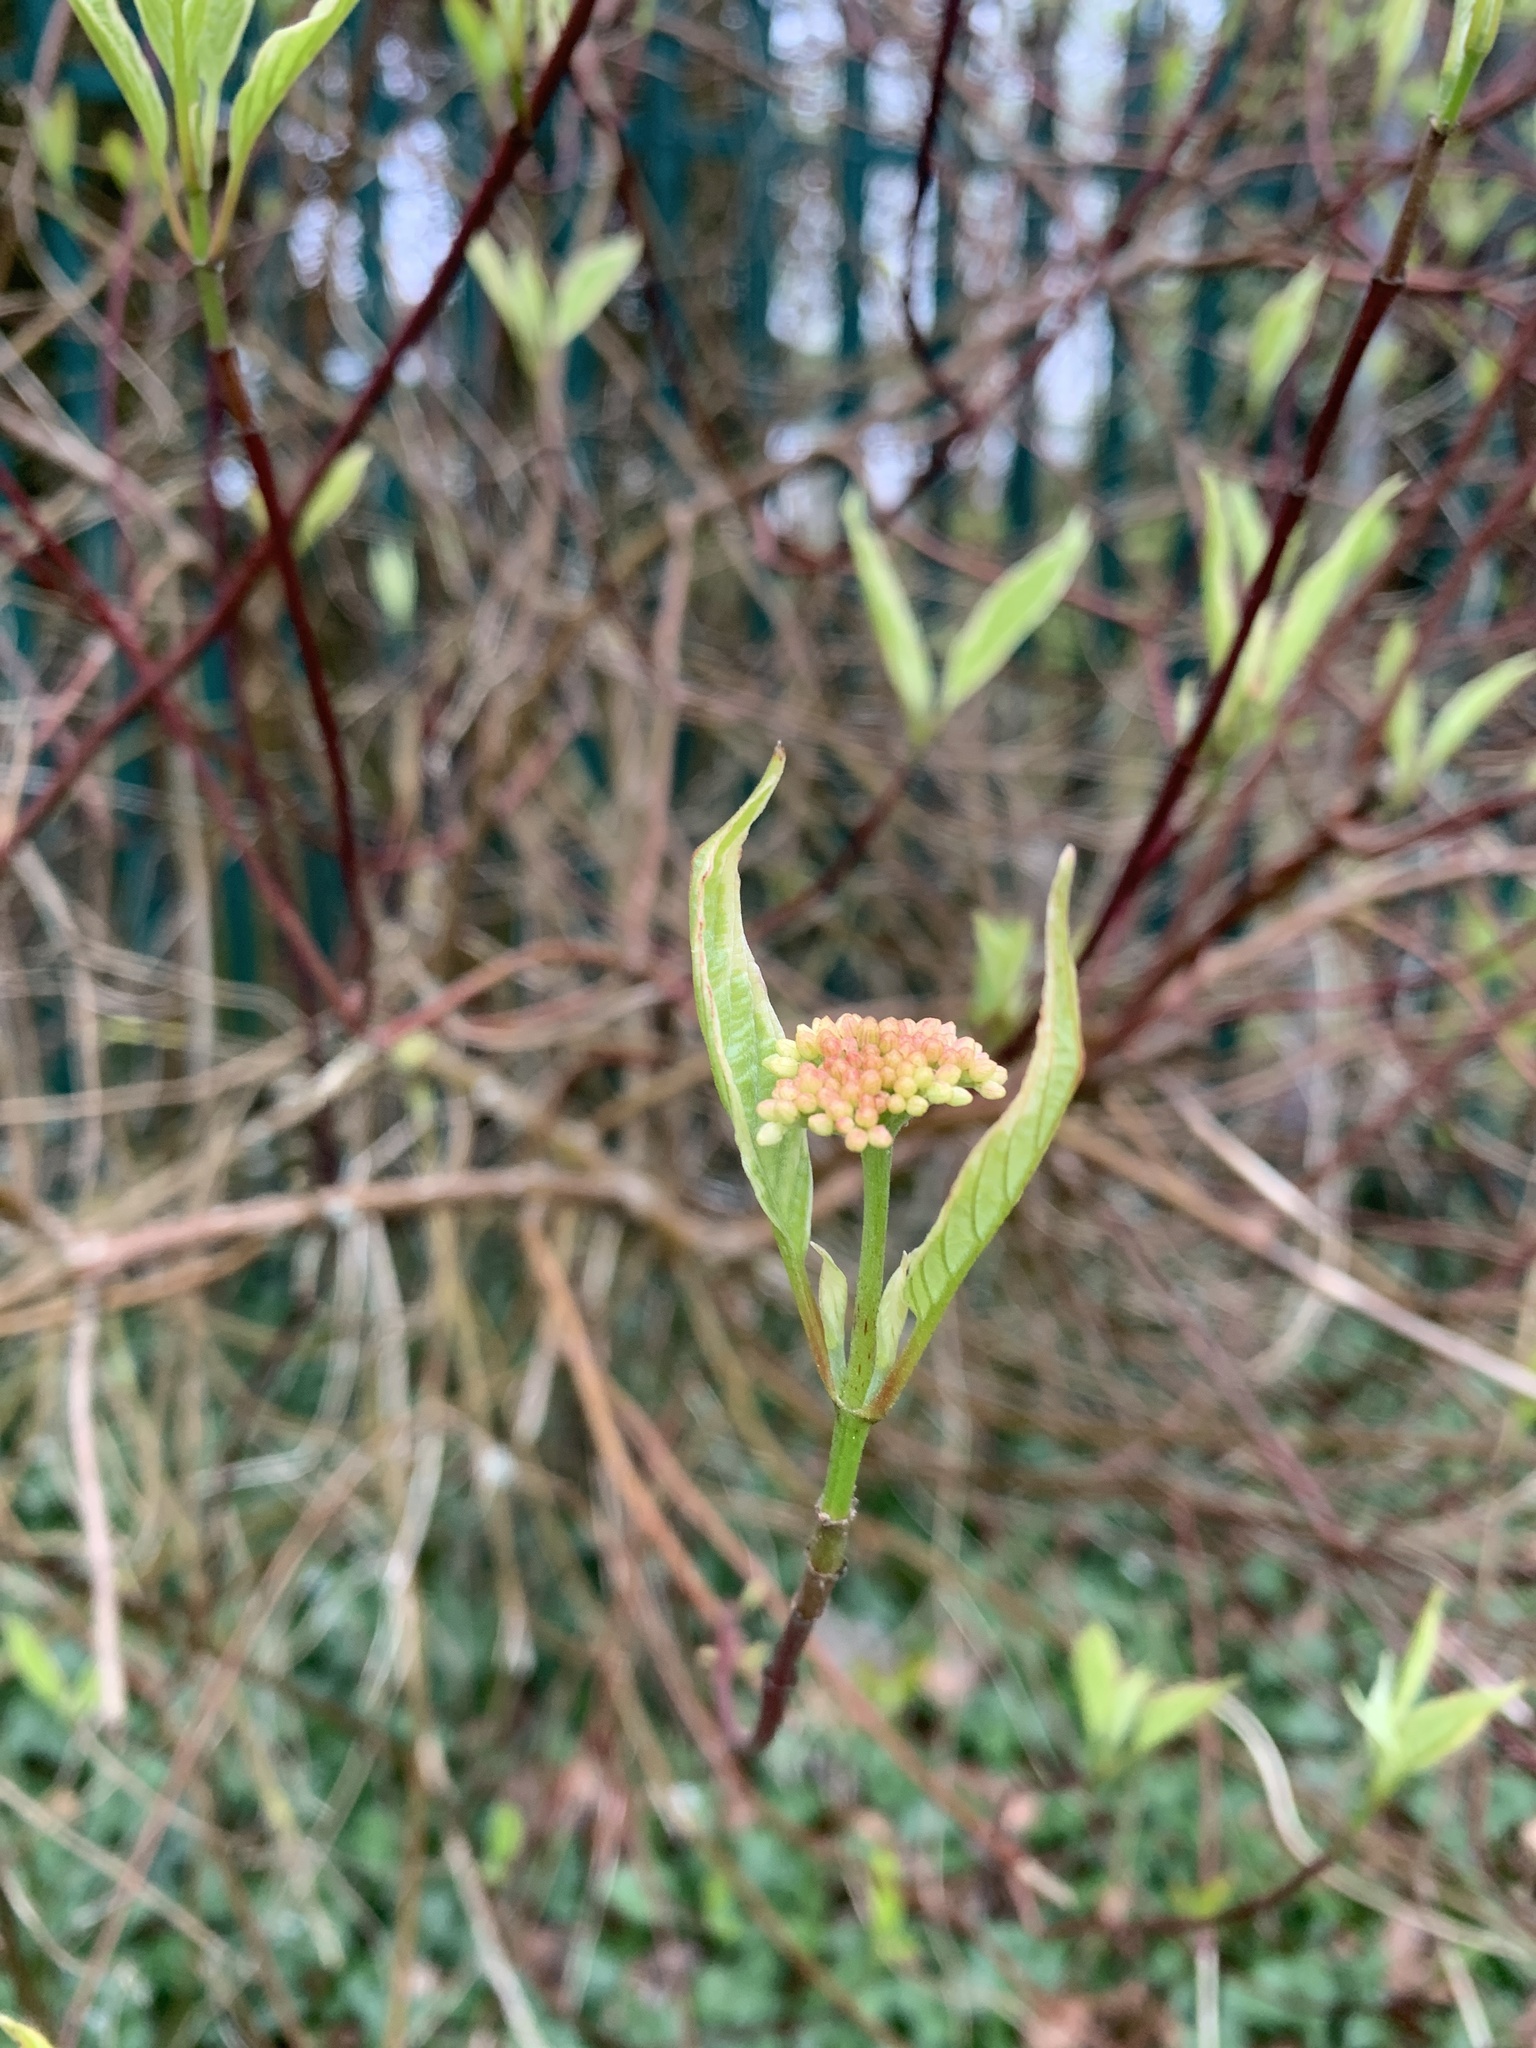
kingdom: Plantae
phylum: Tracheophyta
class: Magnoliopsida
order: Cornales
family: Cornaceae
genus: Cornus
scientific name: Cornus sericea
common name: Red-osier dogwood
